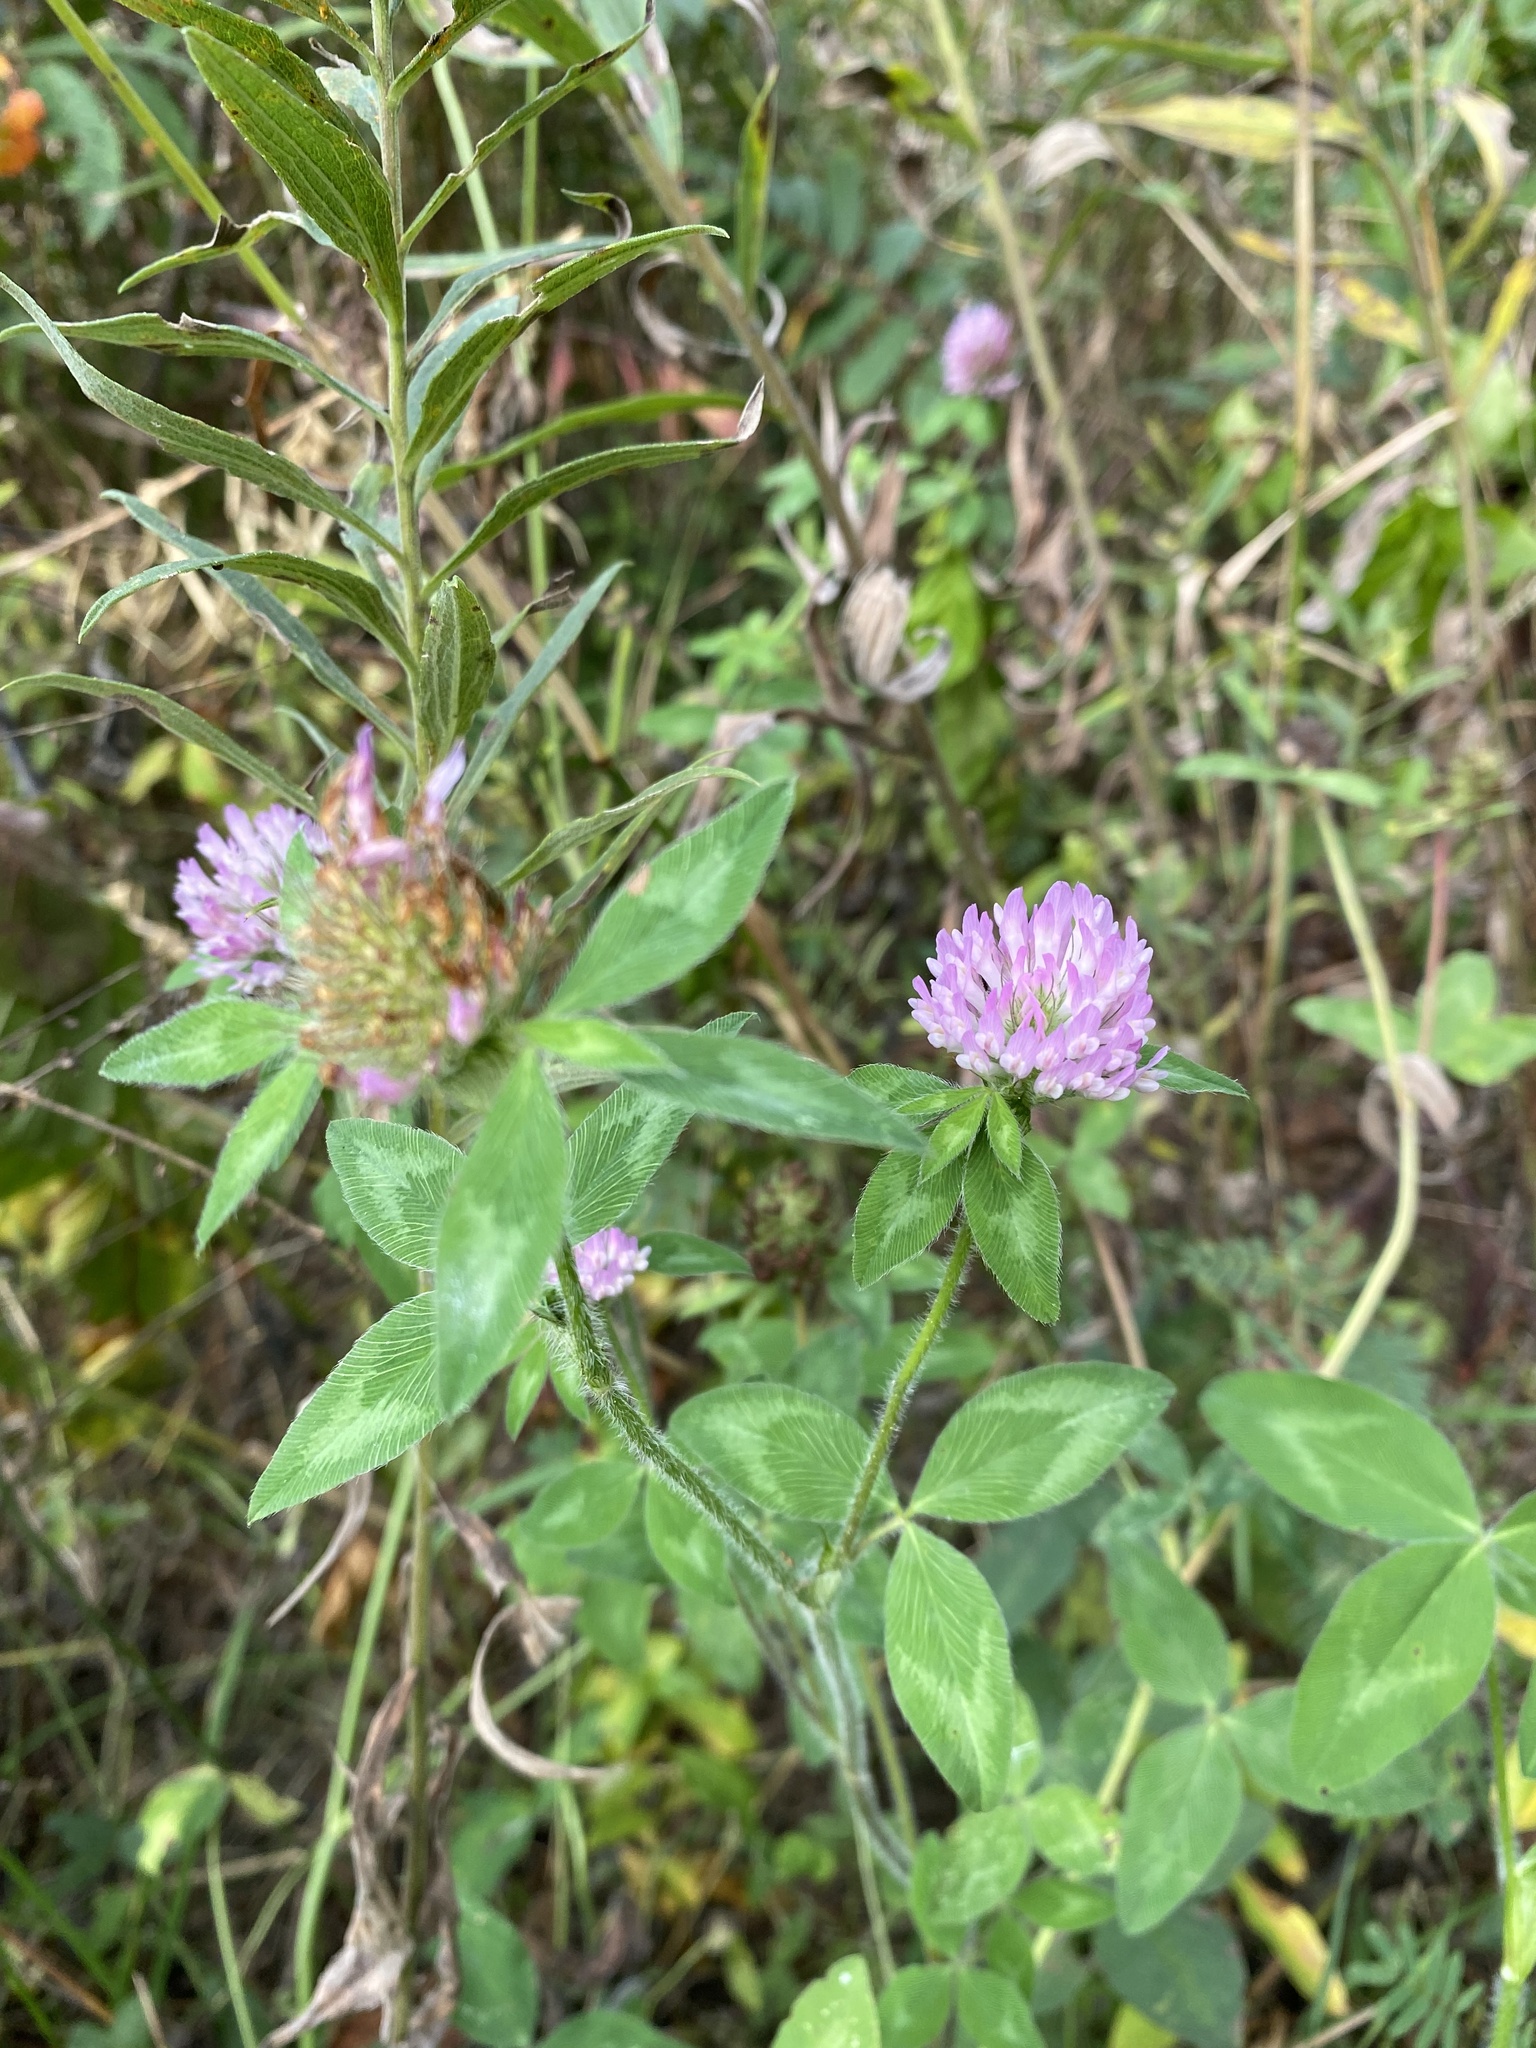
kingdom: Plantae
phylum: Tracheophyta
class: Magnoliopsida
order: Fabales
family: Fabaceae
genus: Trifolium
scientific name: Trifolium pratense
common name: Red clover
